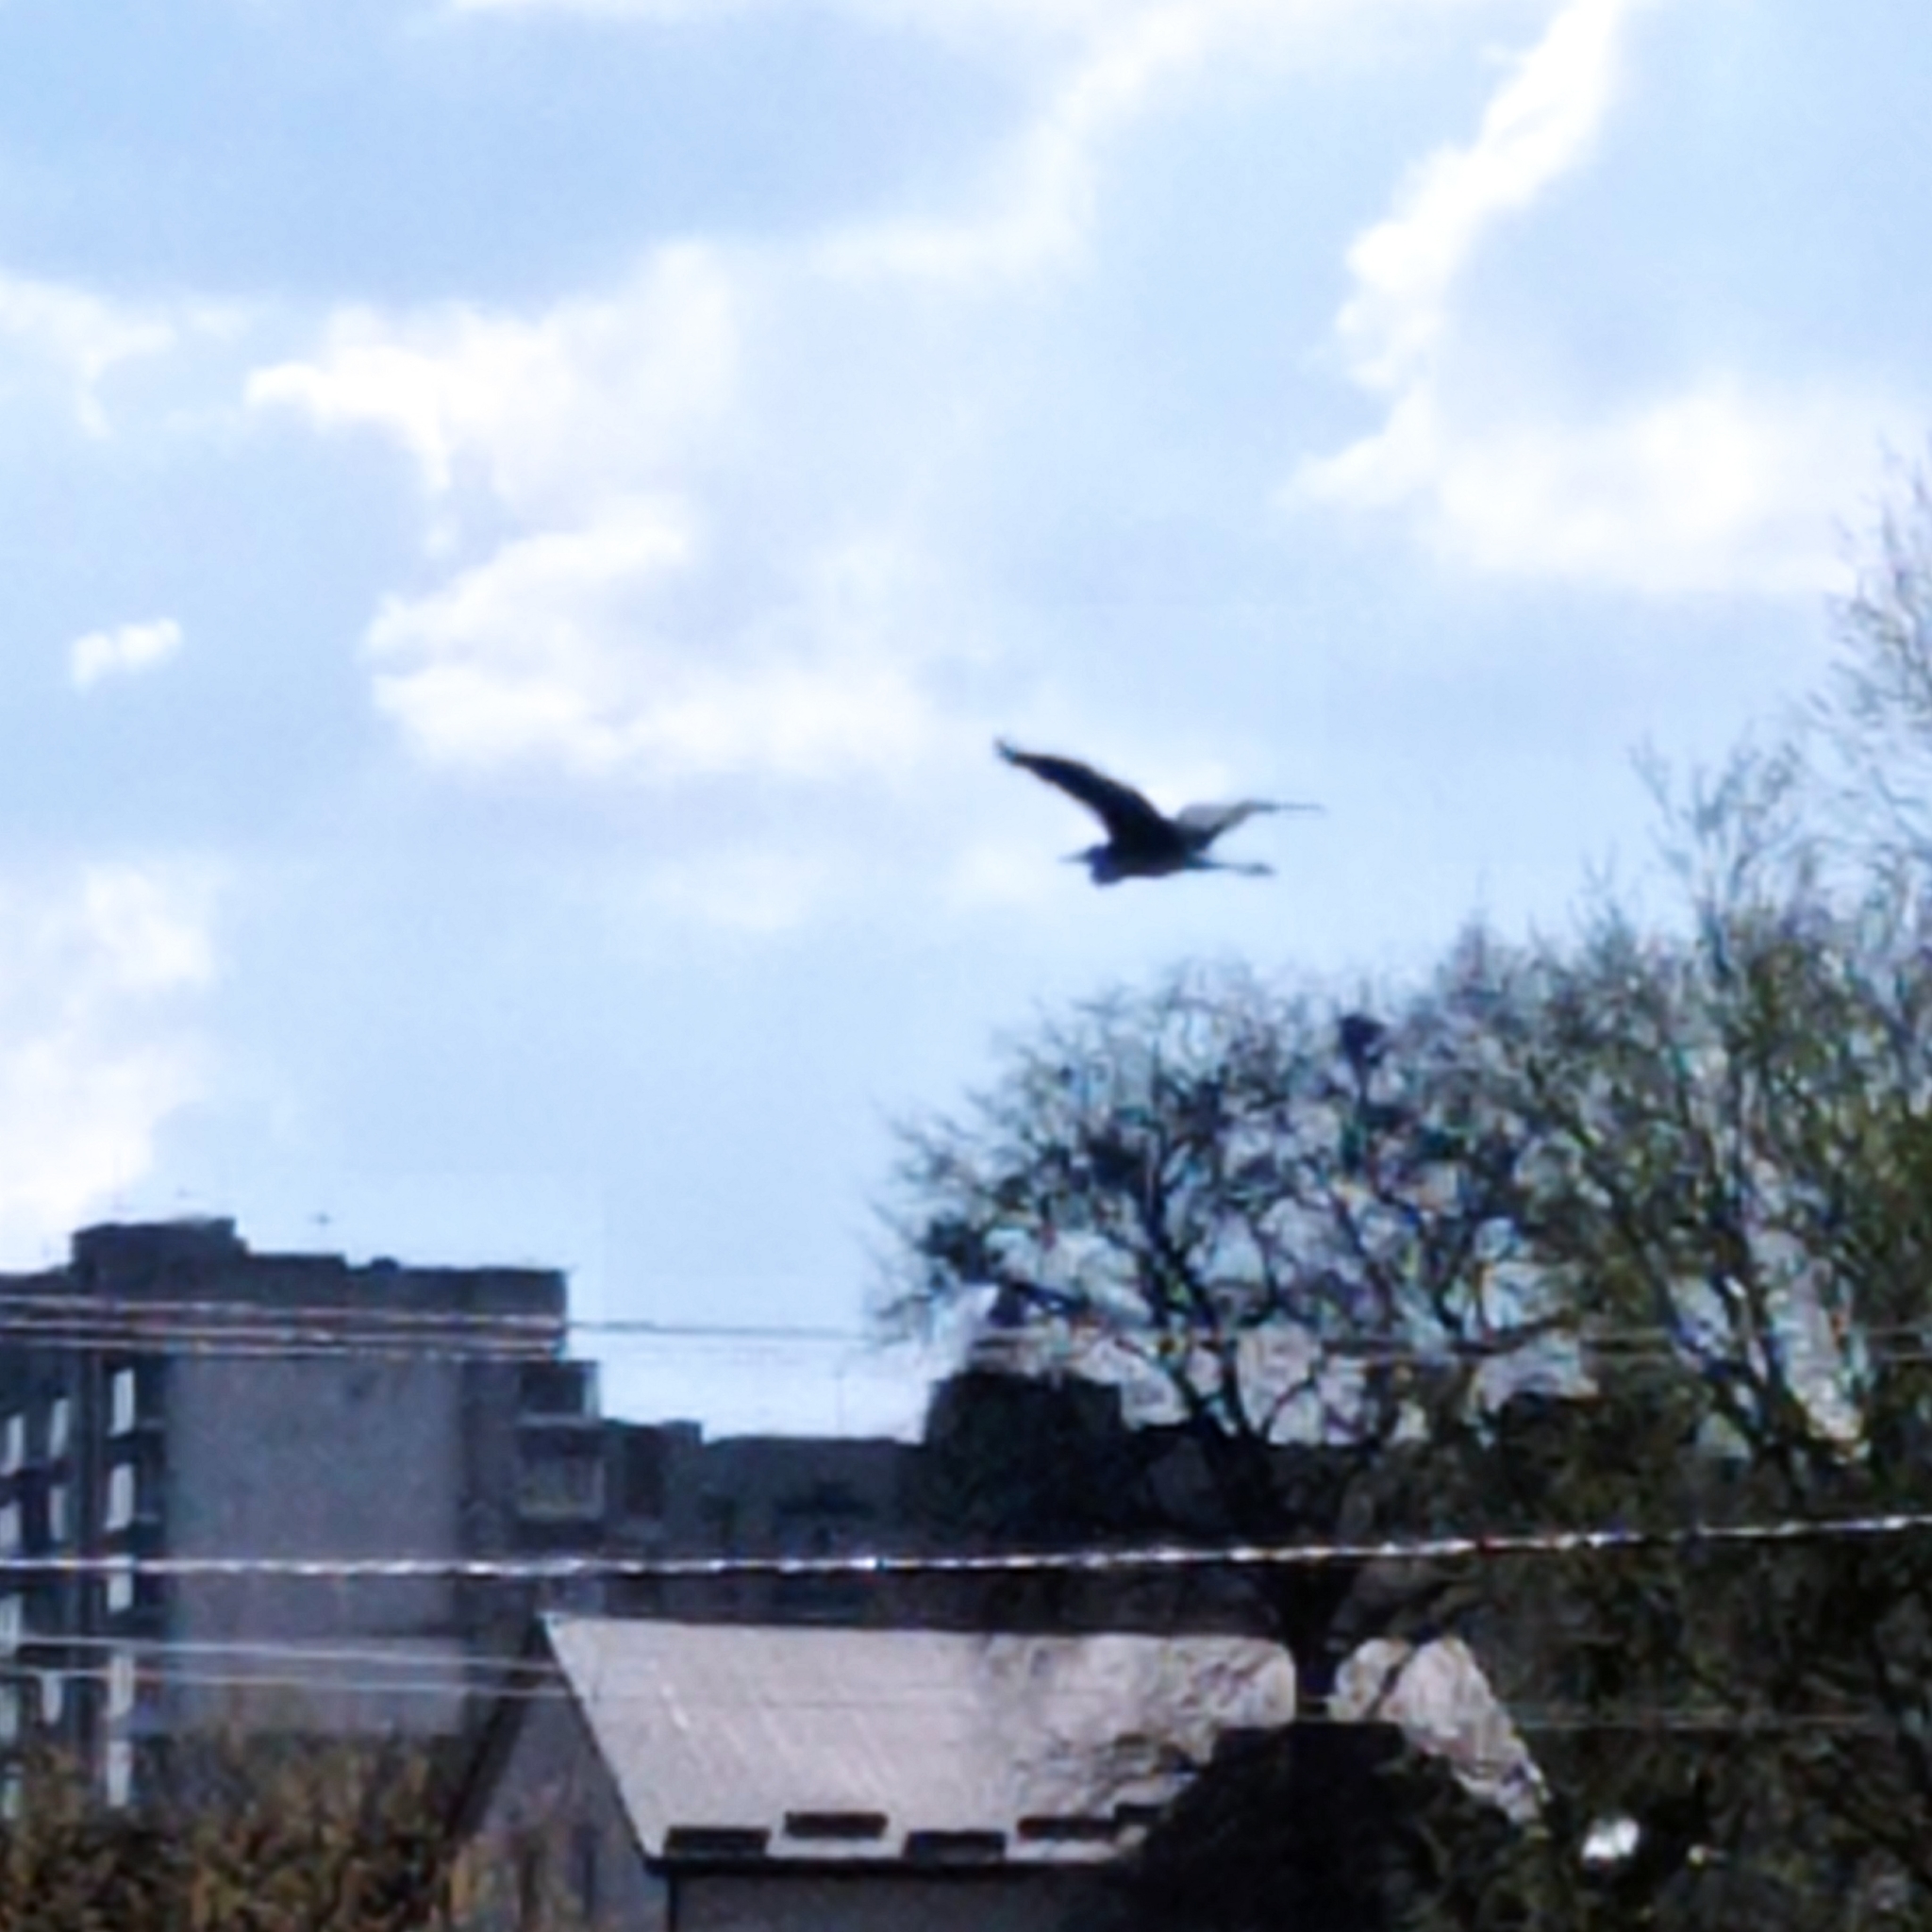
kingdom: Animalia
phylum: Chordata
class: Aves
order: Pelecaniformes
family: Ardeidae
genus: Ardea
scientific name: Ardea cinerea
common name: Grey heron
